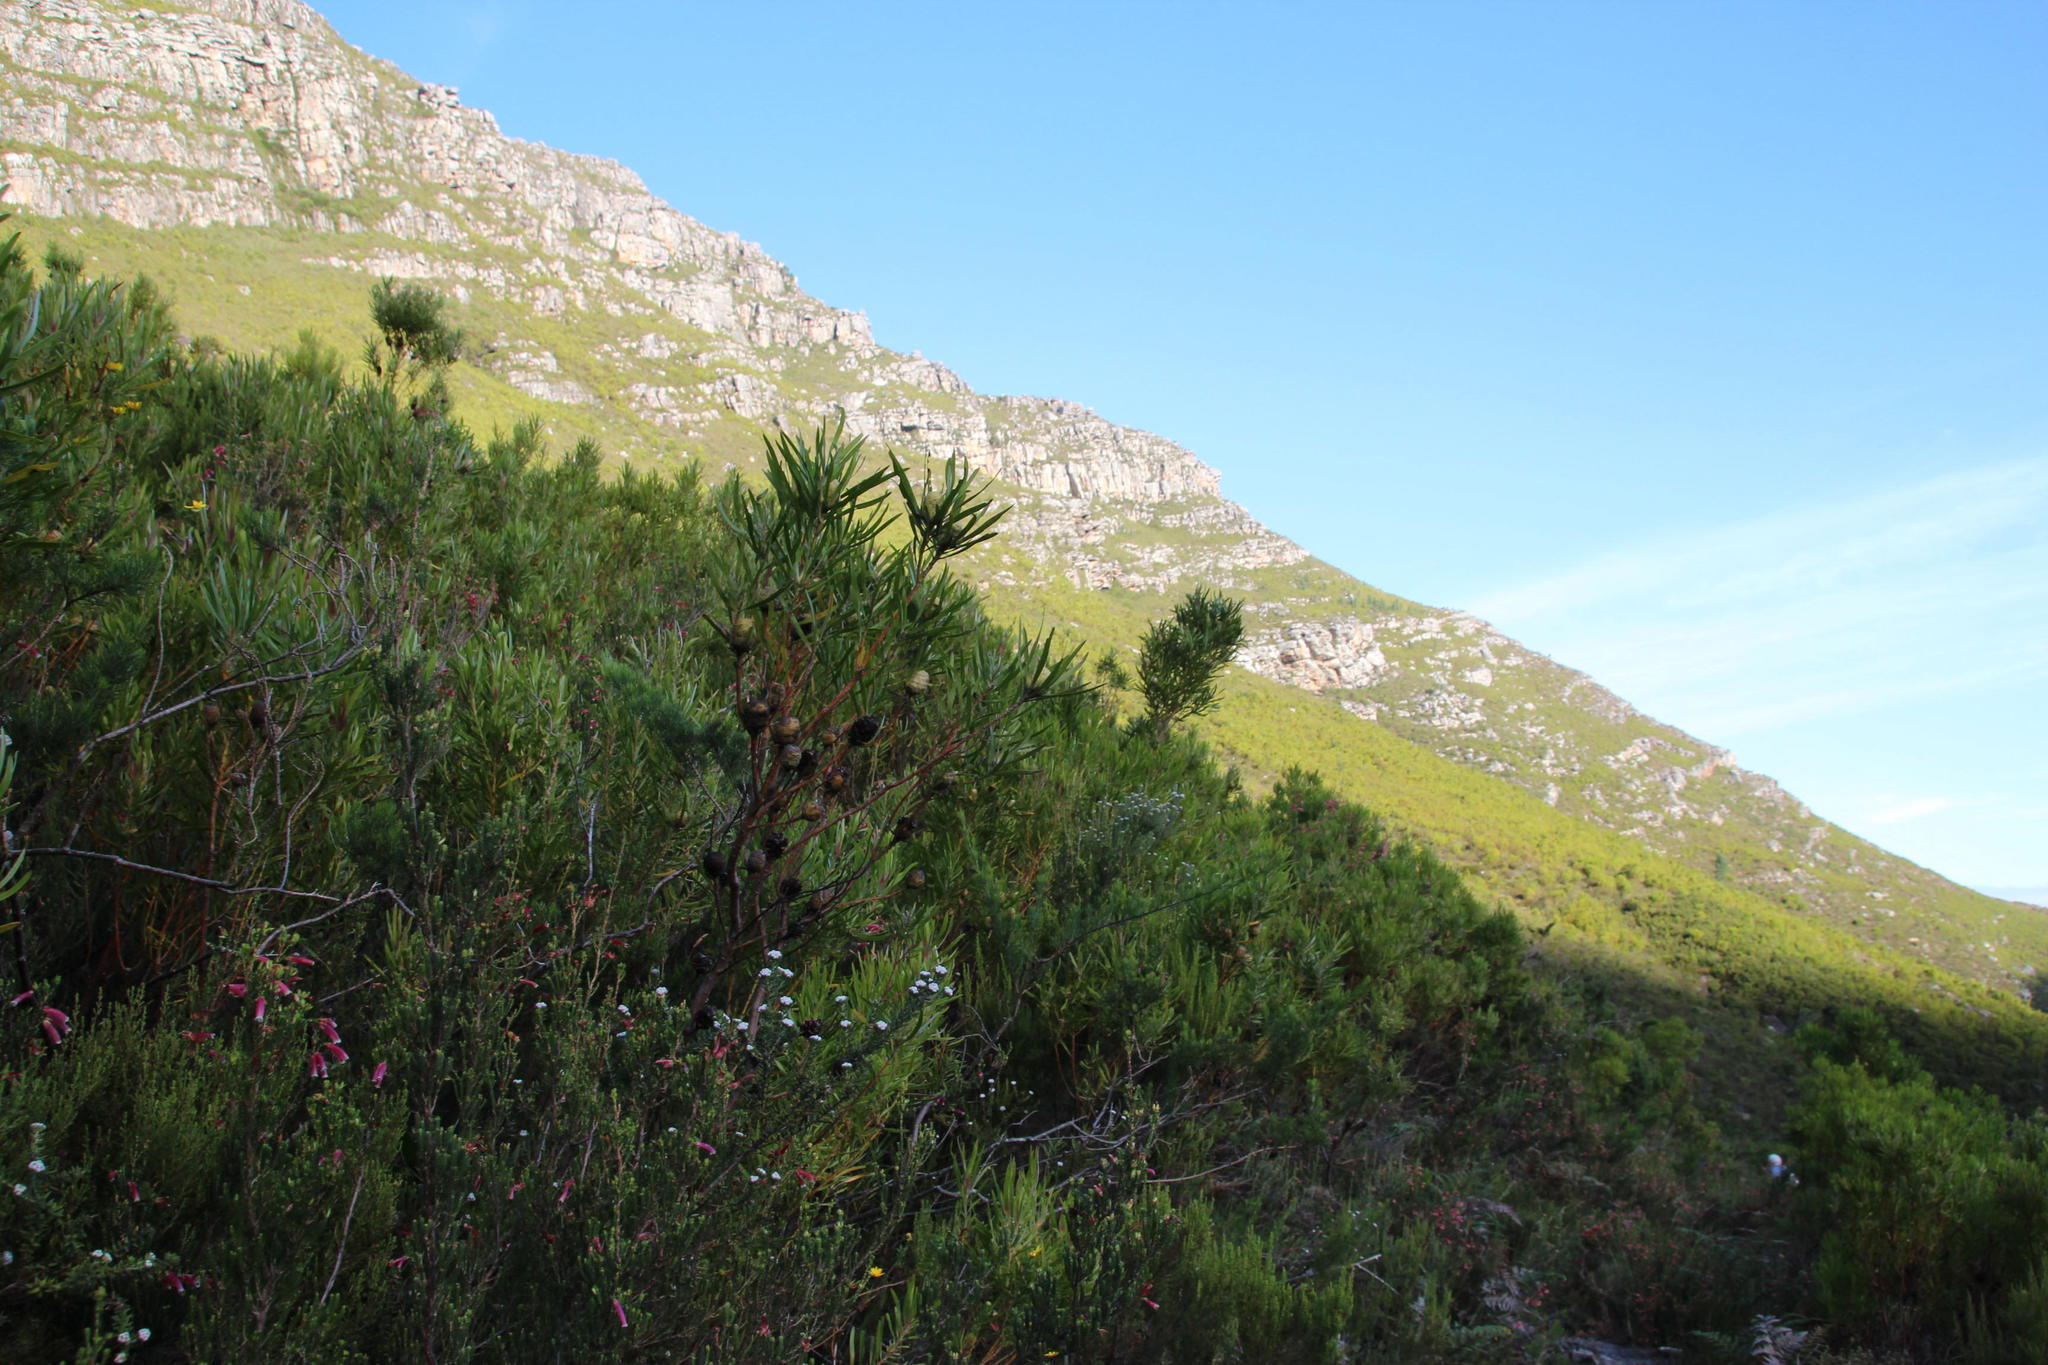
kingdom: Plantae
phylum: Tracheophyta
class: Magnoliopsida
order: Proteales
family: Proteaceae
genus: Leucadendron
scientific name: Leucadendron eucalyptifolium
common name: Gum-leaved conebush
